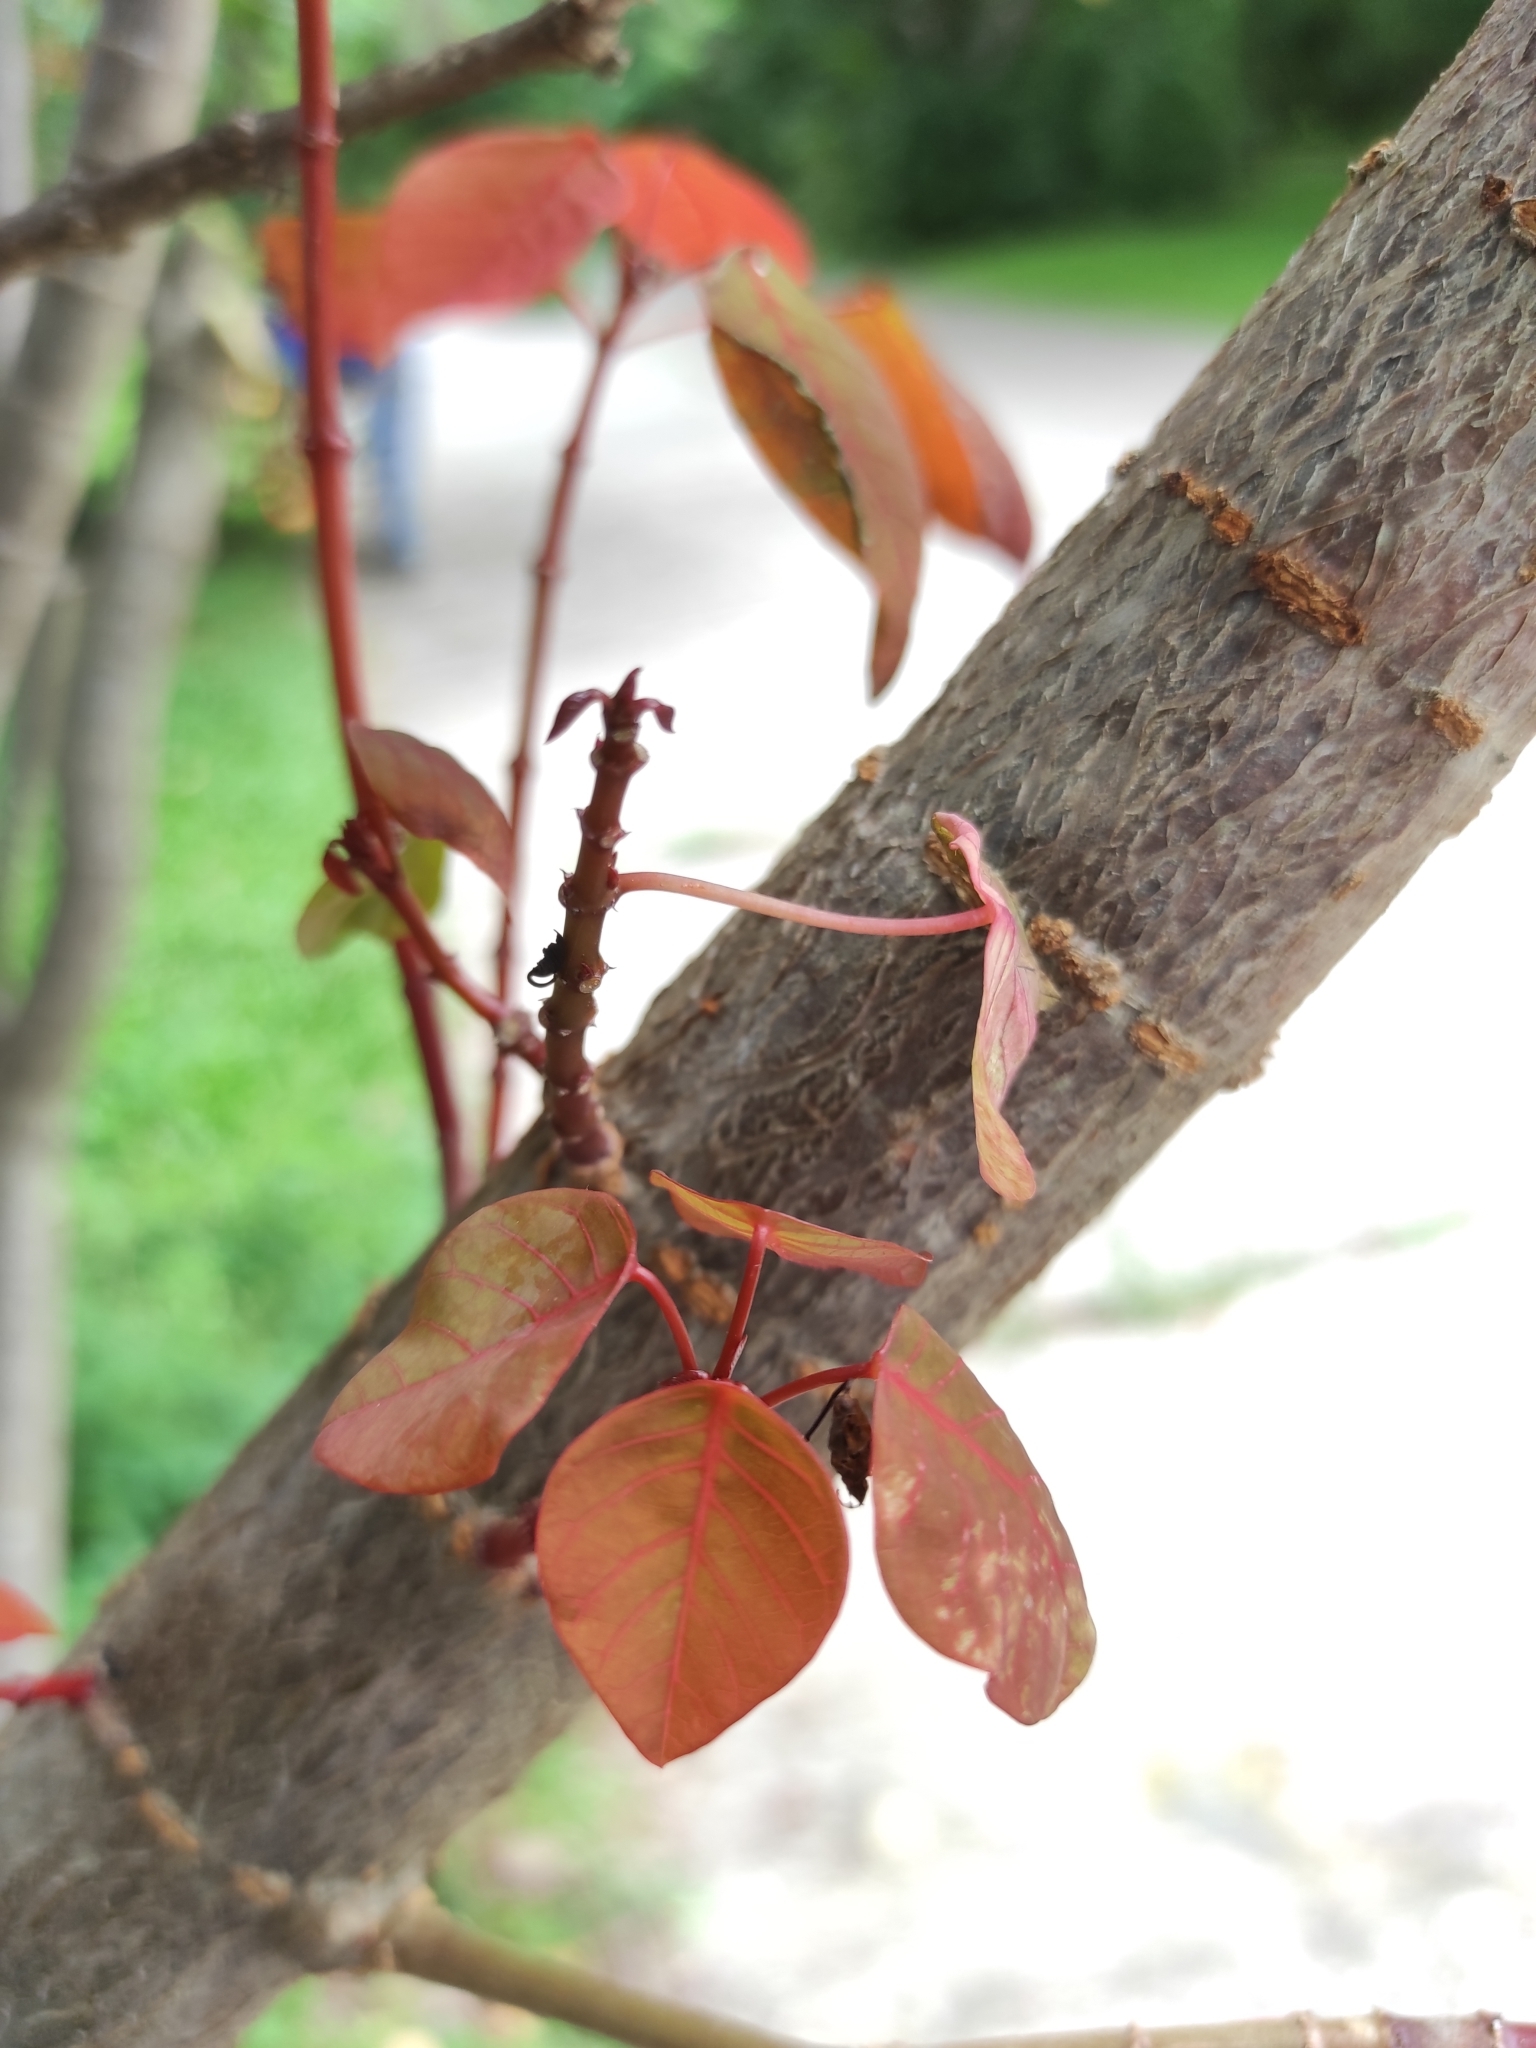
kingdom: Plantae
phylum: Tracheophyta
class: Magnoliopsida
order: Malpighiales
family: Euphorbiaceae
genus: Euphorbia
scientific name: Euphorbia cotinifolia
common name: Tropical smokebush
